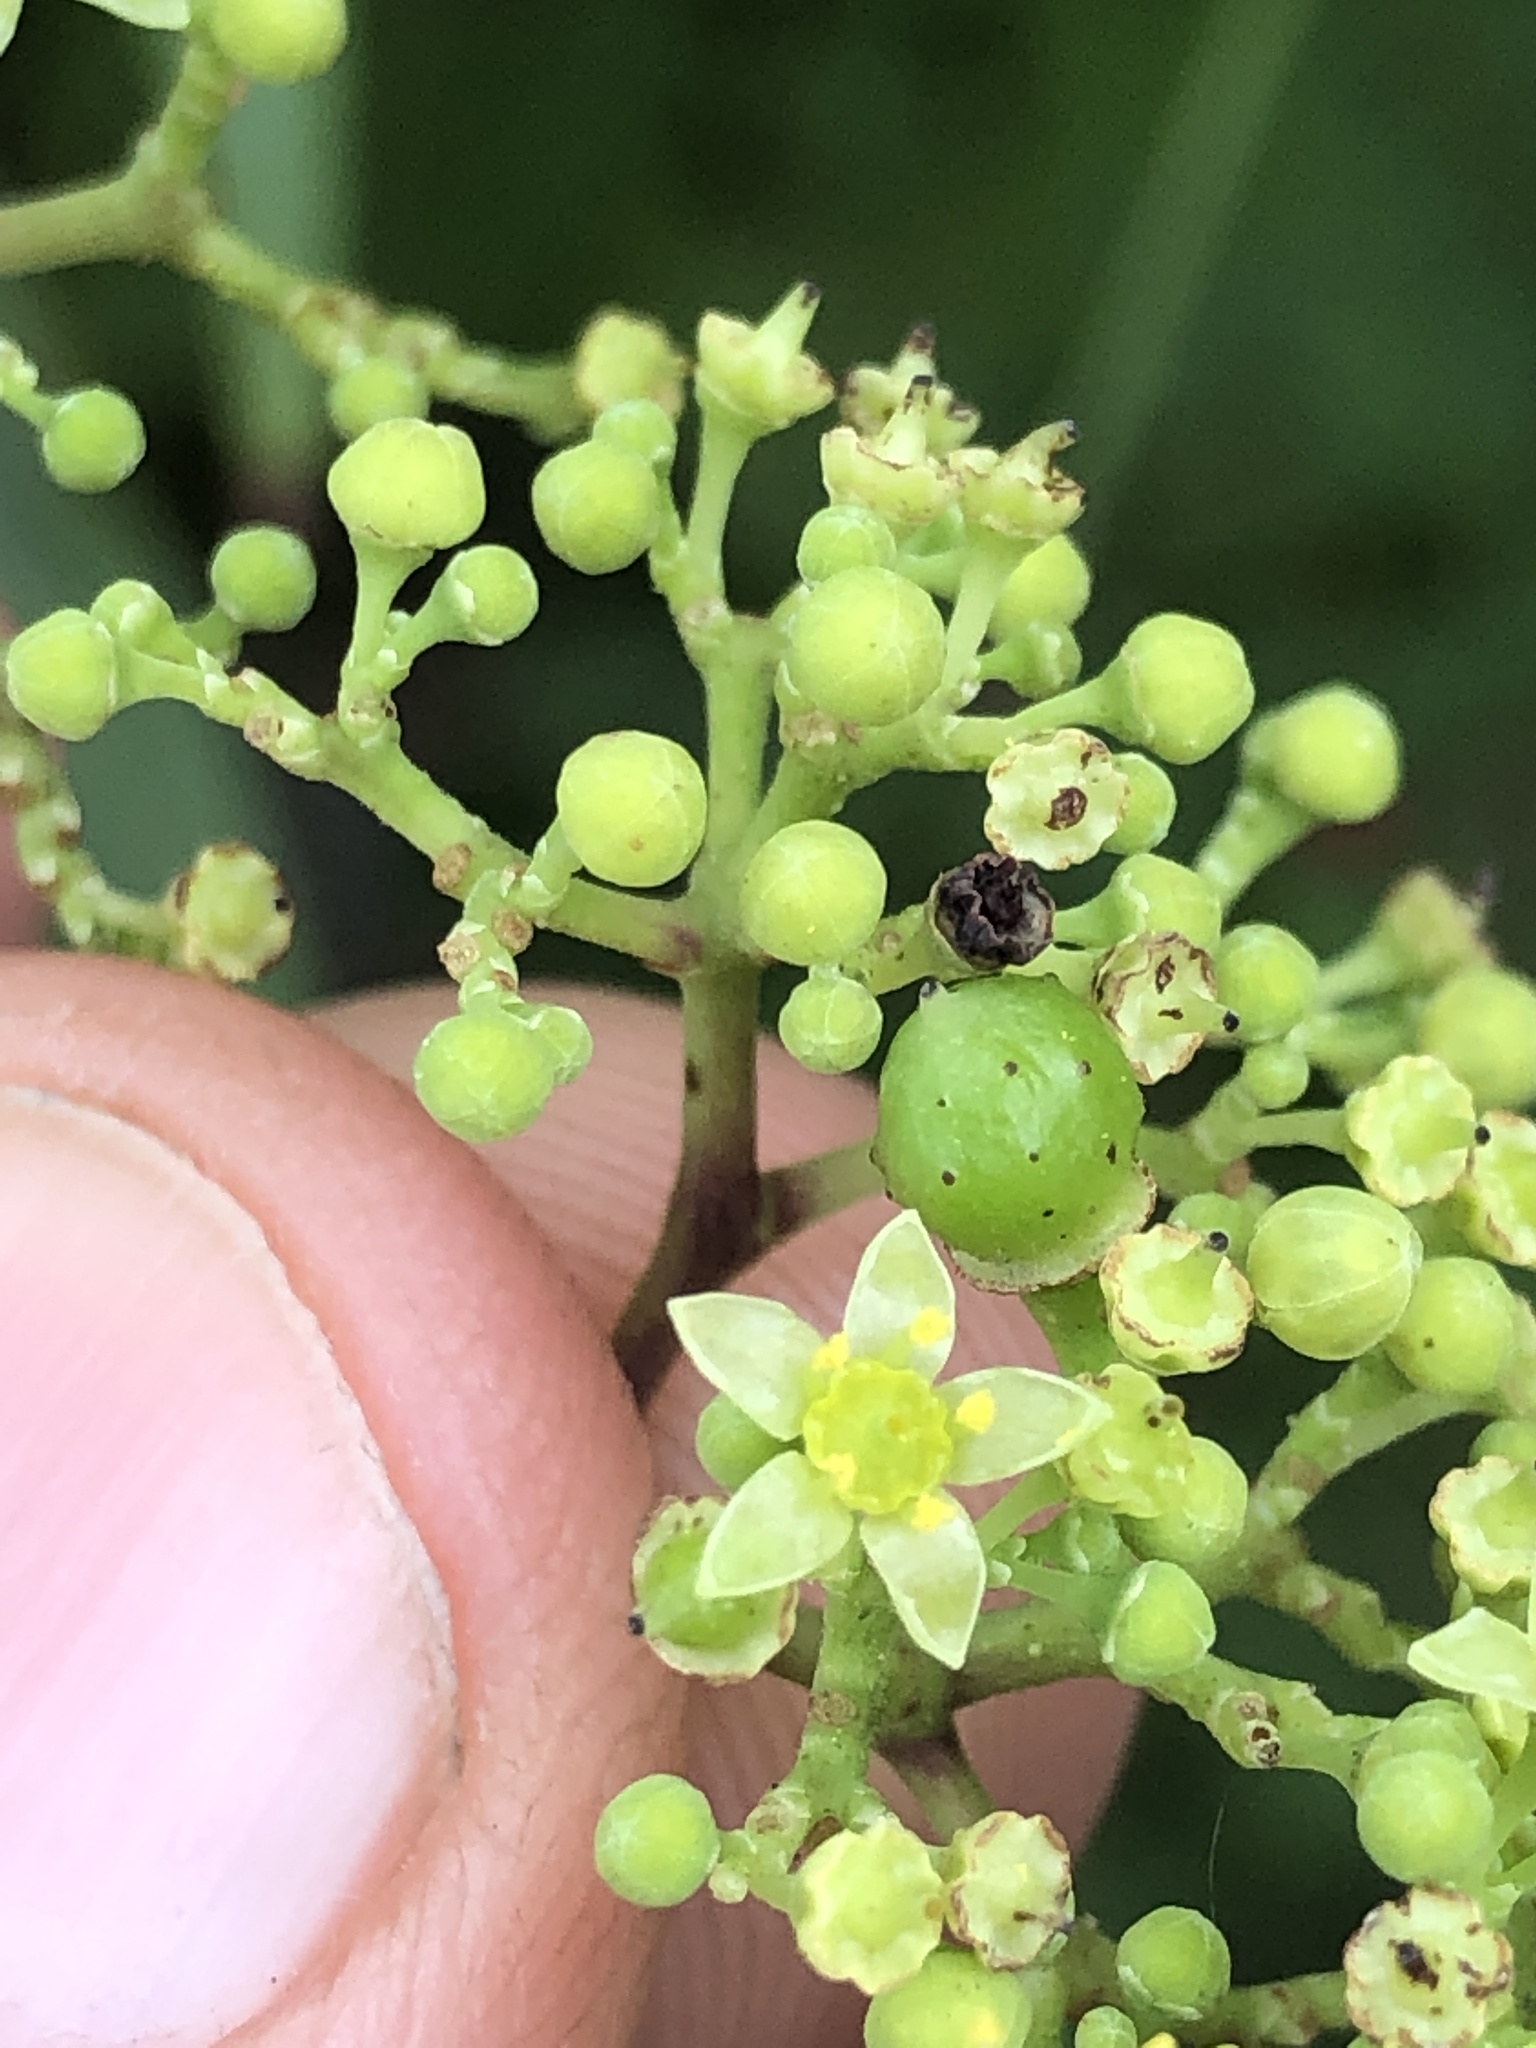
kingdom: Plantae
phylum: Tracheophyta
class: Magnoliopsida
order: Vitales
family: Vitaceae
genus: Nekemias
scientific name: Nekemias arborea
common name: Peppervine
